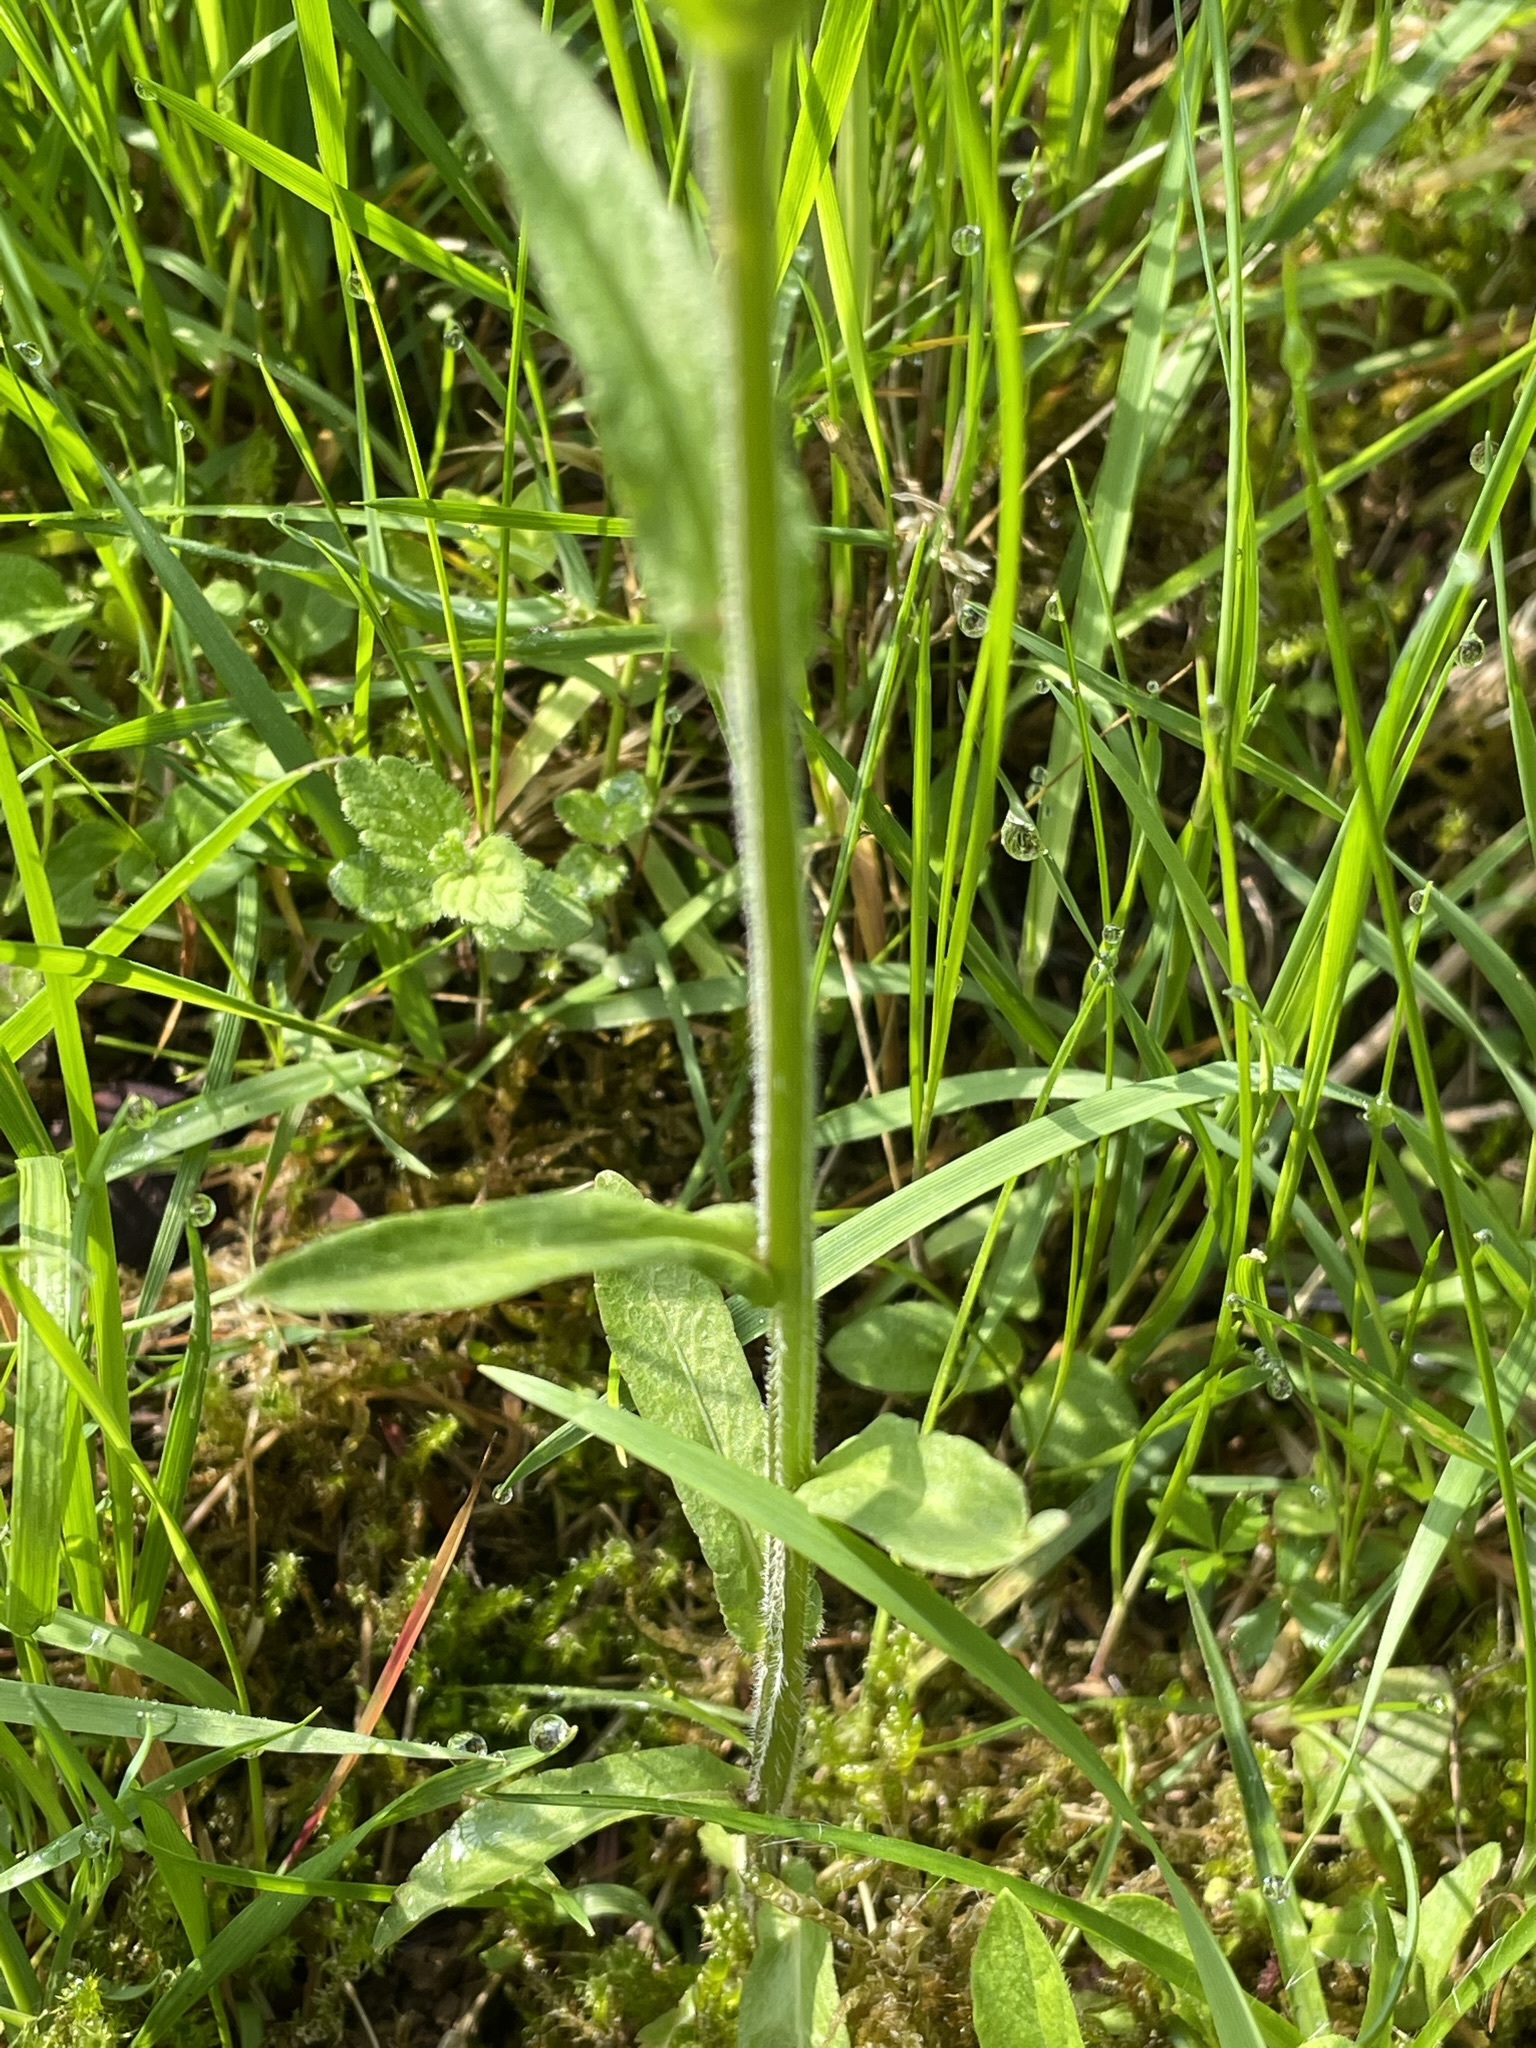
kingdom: Plantae
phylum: Tracheophyta
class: Magnoliopsida
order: Asterales
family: Campanulaceae
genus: Campanula
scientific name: Campanula patula
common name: Spreading bellflower
